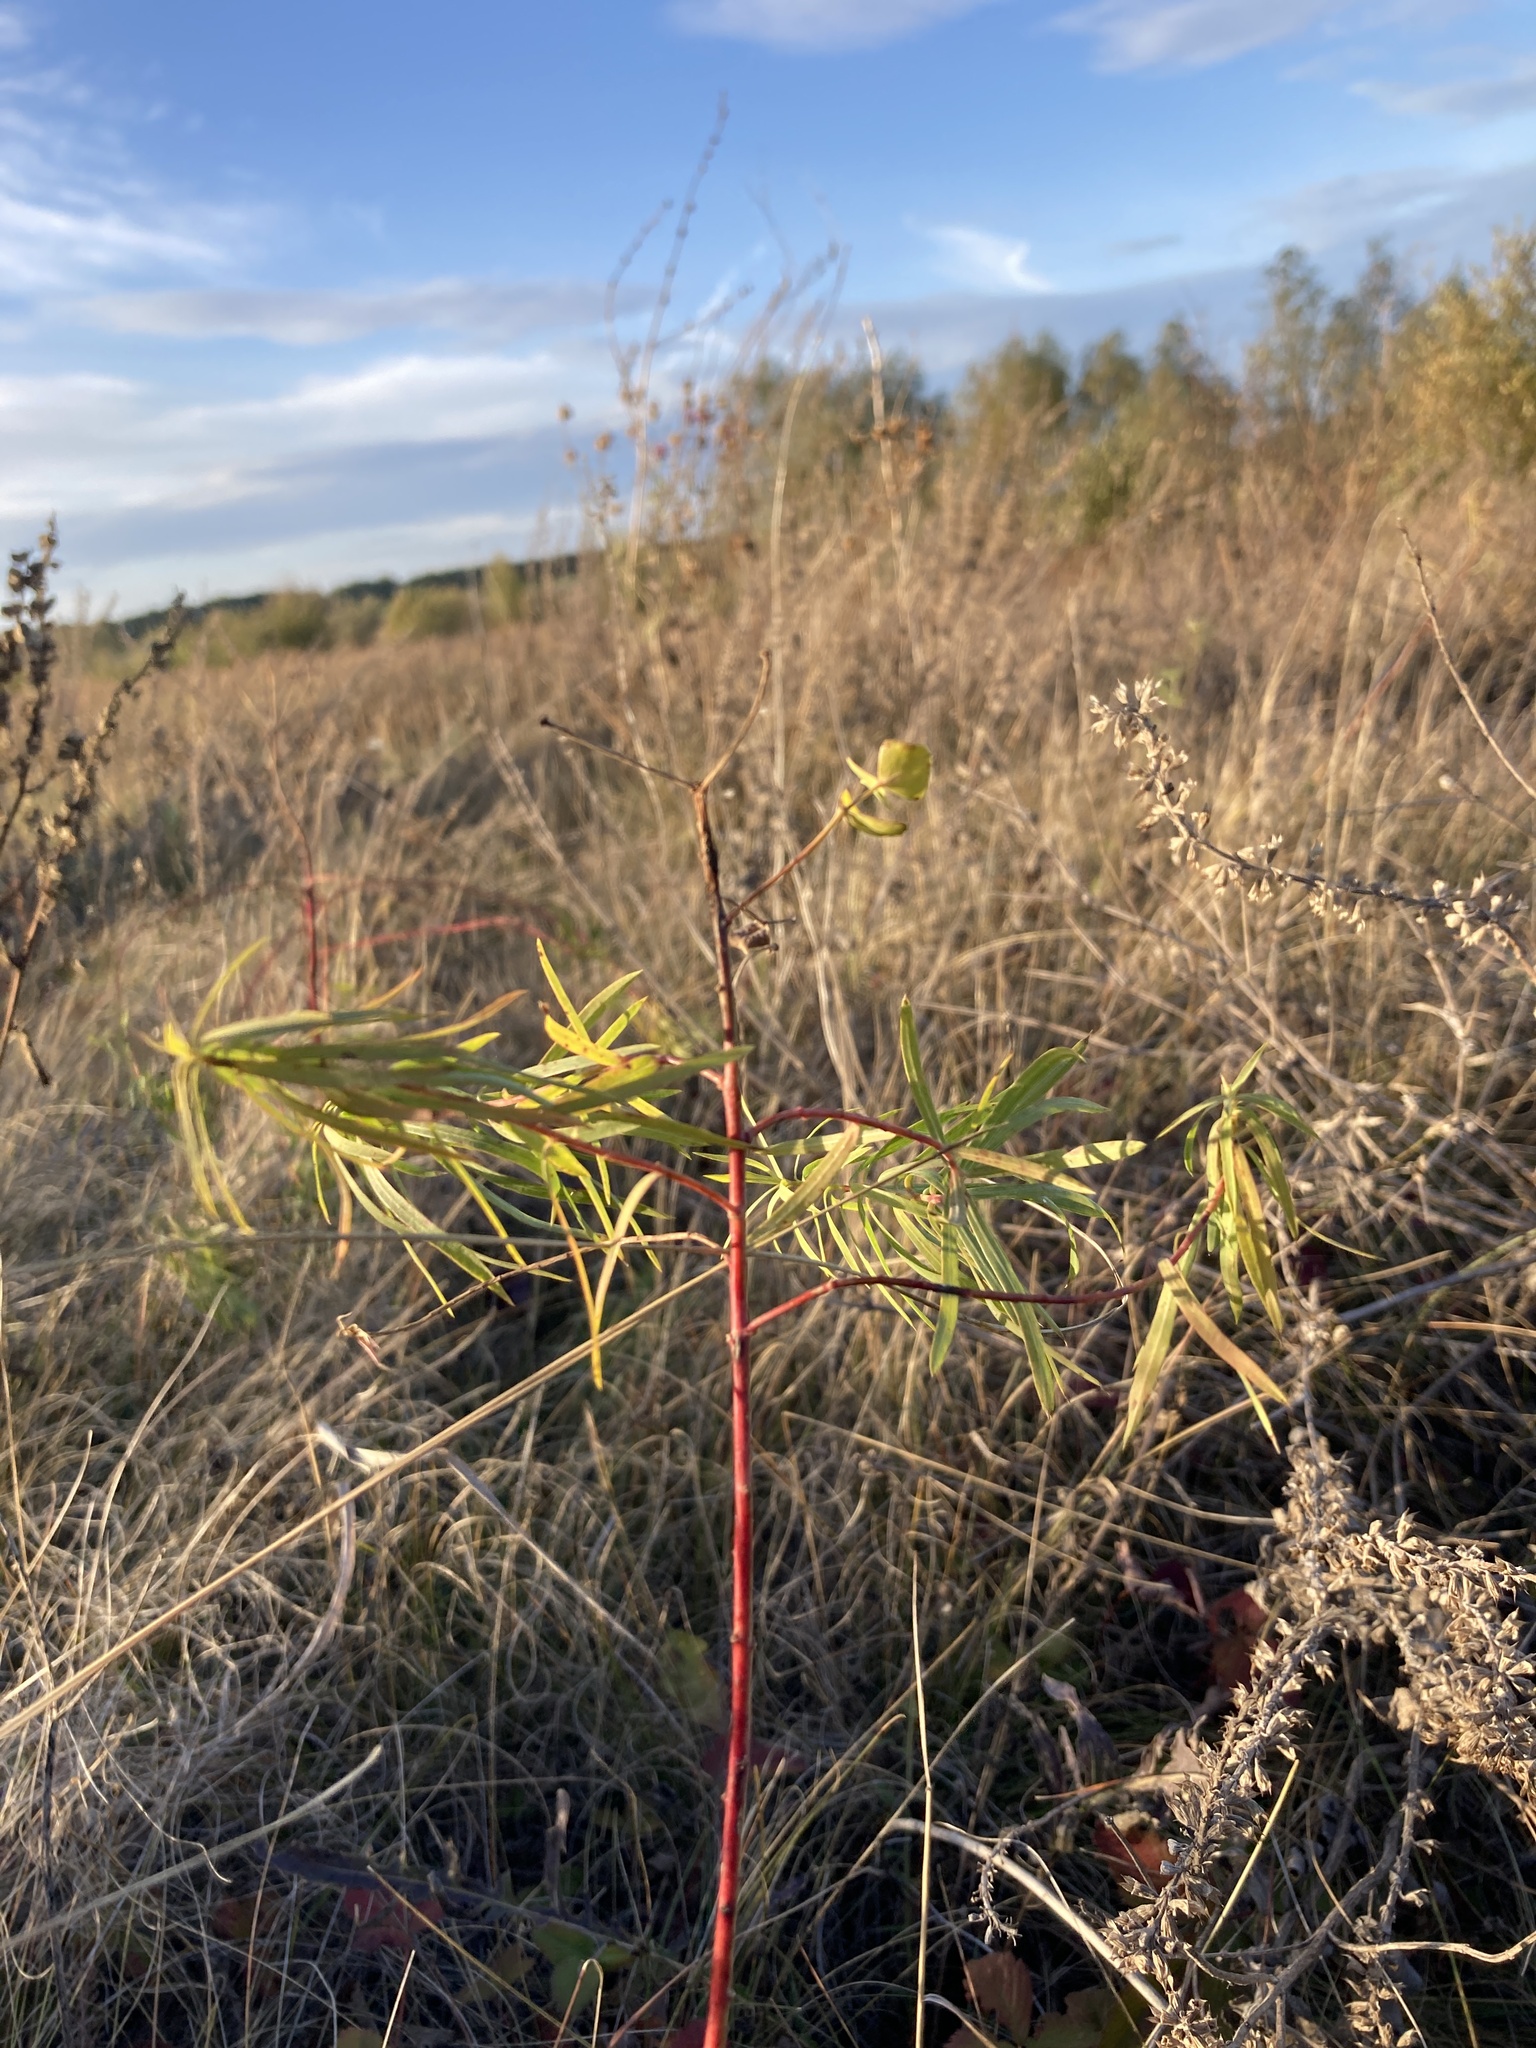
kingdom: Plantae
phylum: Tracheophyta
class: Magnoliopsida
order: Malpighiales
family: Euphorbiaceae
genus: Euphorbia
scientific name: Euphorbia virgata
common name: Leafy spurge
